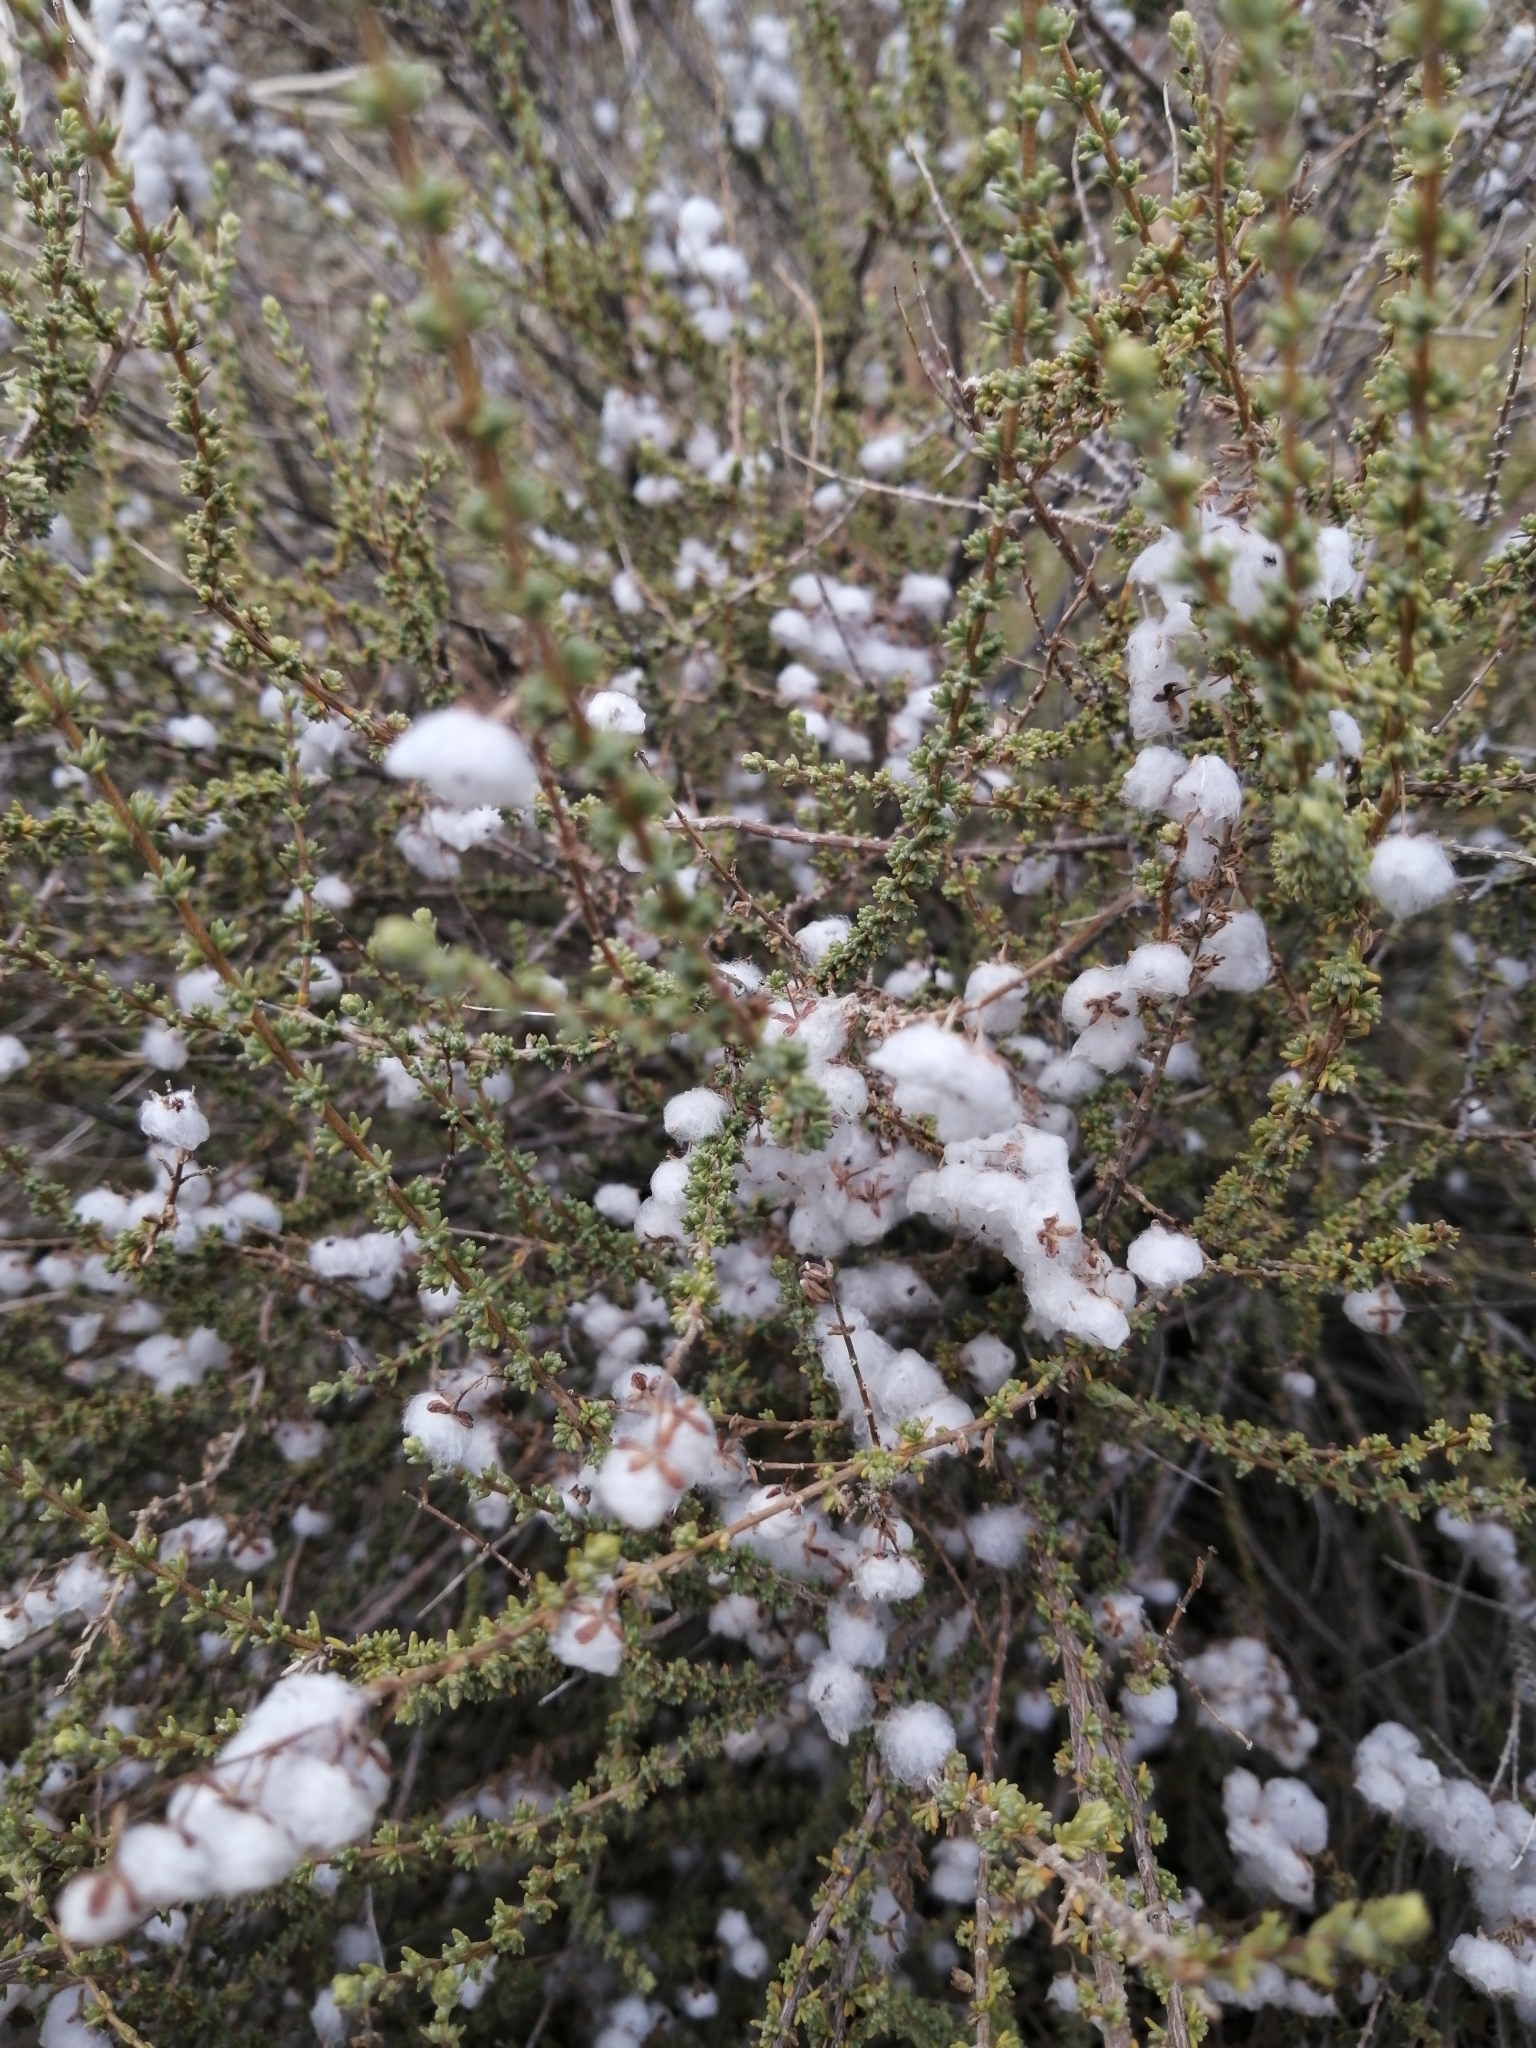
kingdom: Plantae
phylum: Tracheophyta
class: Magnoliopsida
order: Asterales
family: Asteraceae
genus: Eriocephalus
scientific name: Eriocephalus ericoides
